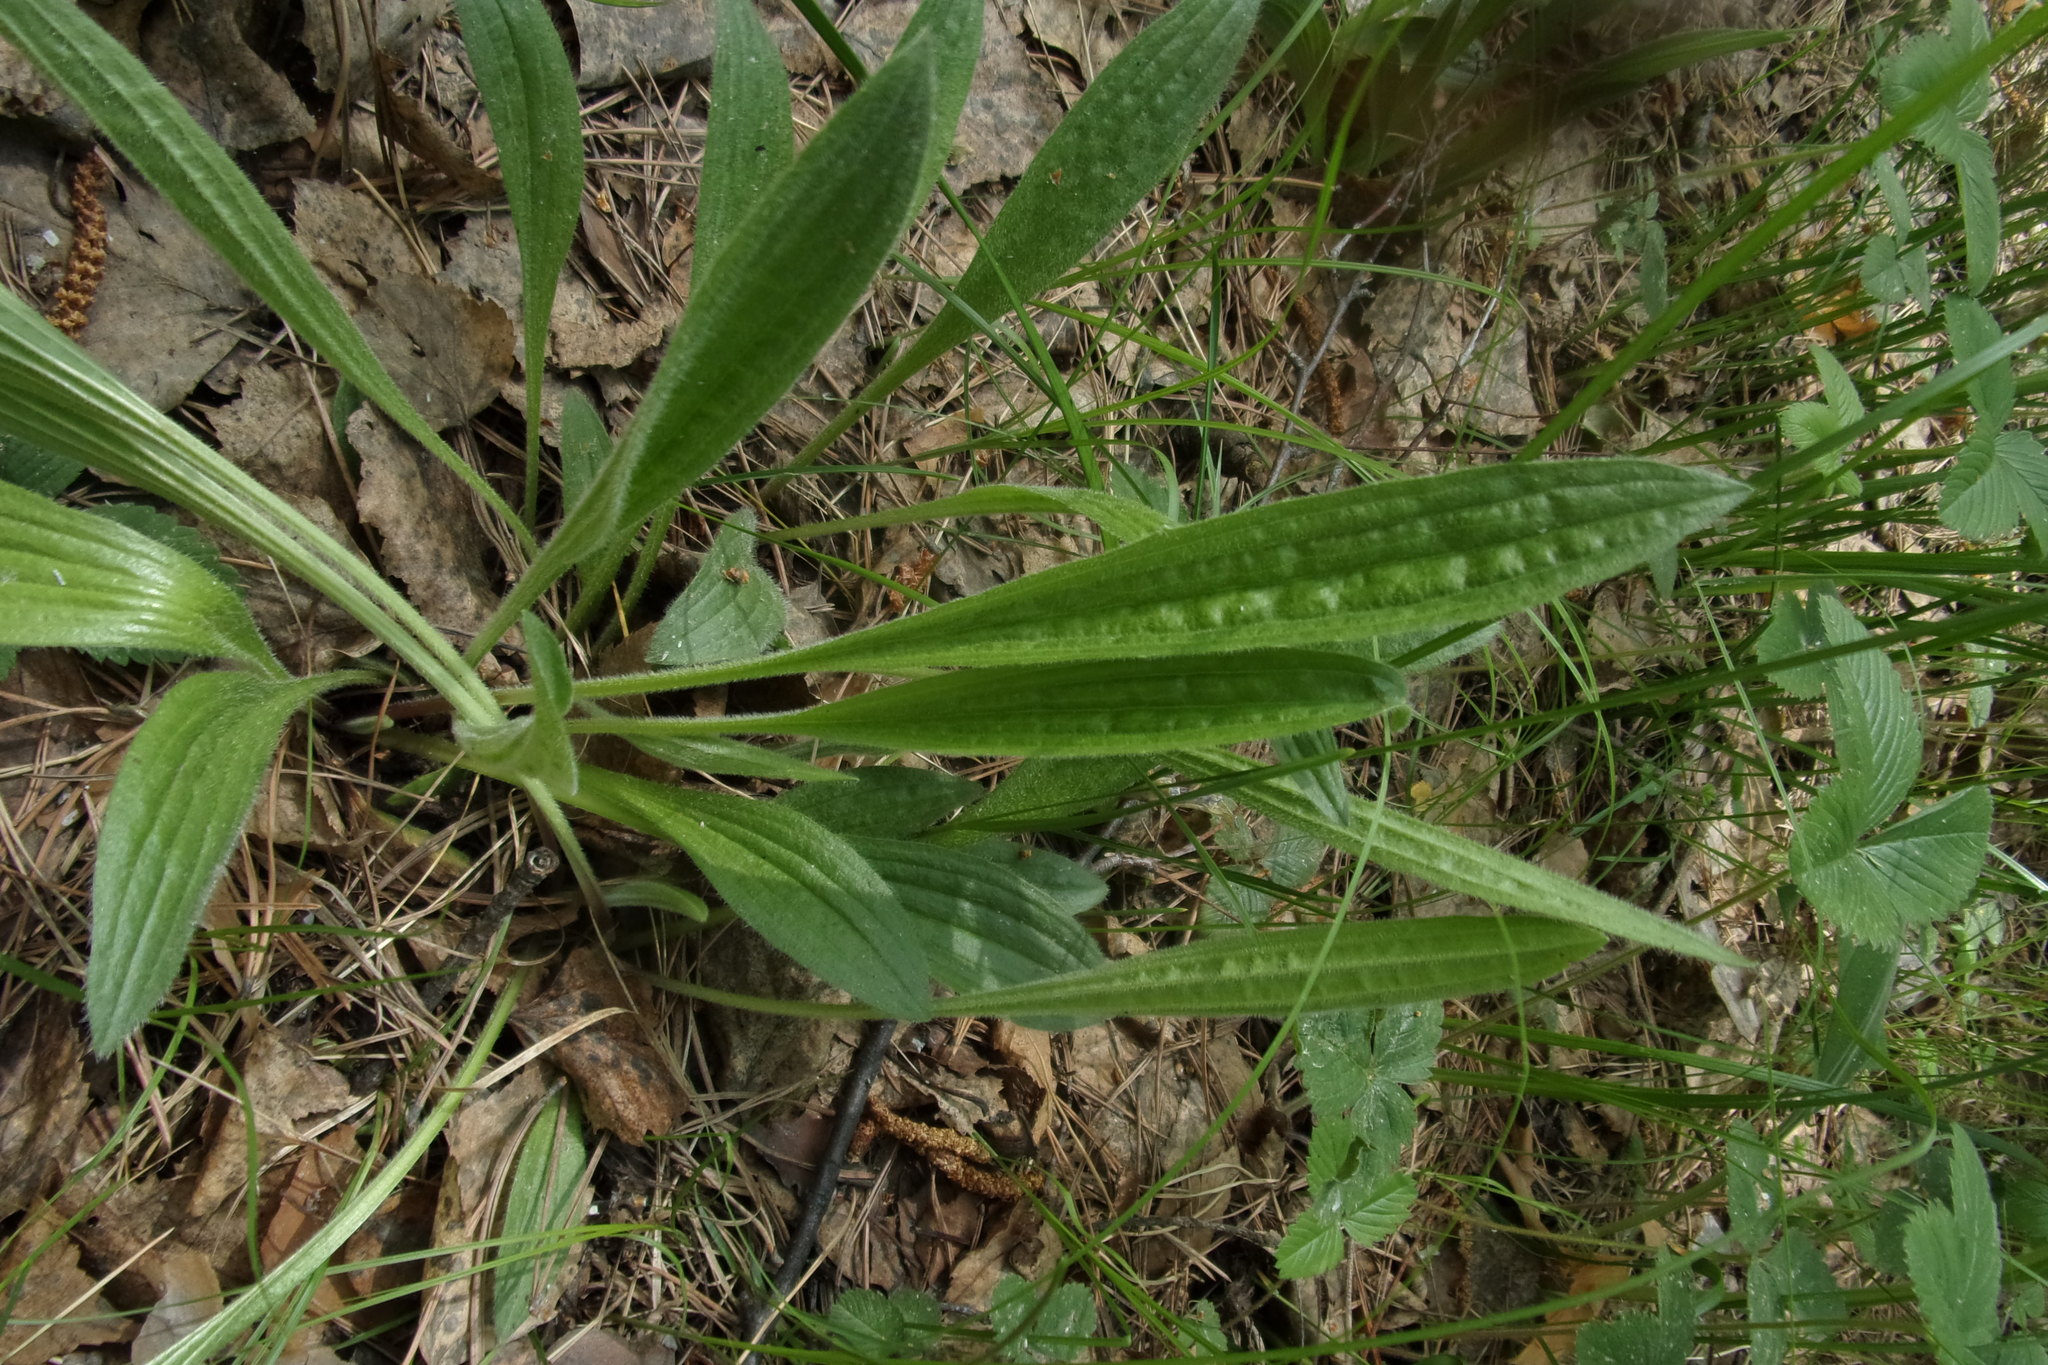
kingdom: Plantae
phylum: Tracheophyta
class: Magnoliopsida
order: Lamiales
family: Plantaginaceae
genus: Plantago
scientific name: Plantago lanceolata
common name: Ribwort plantain
